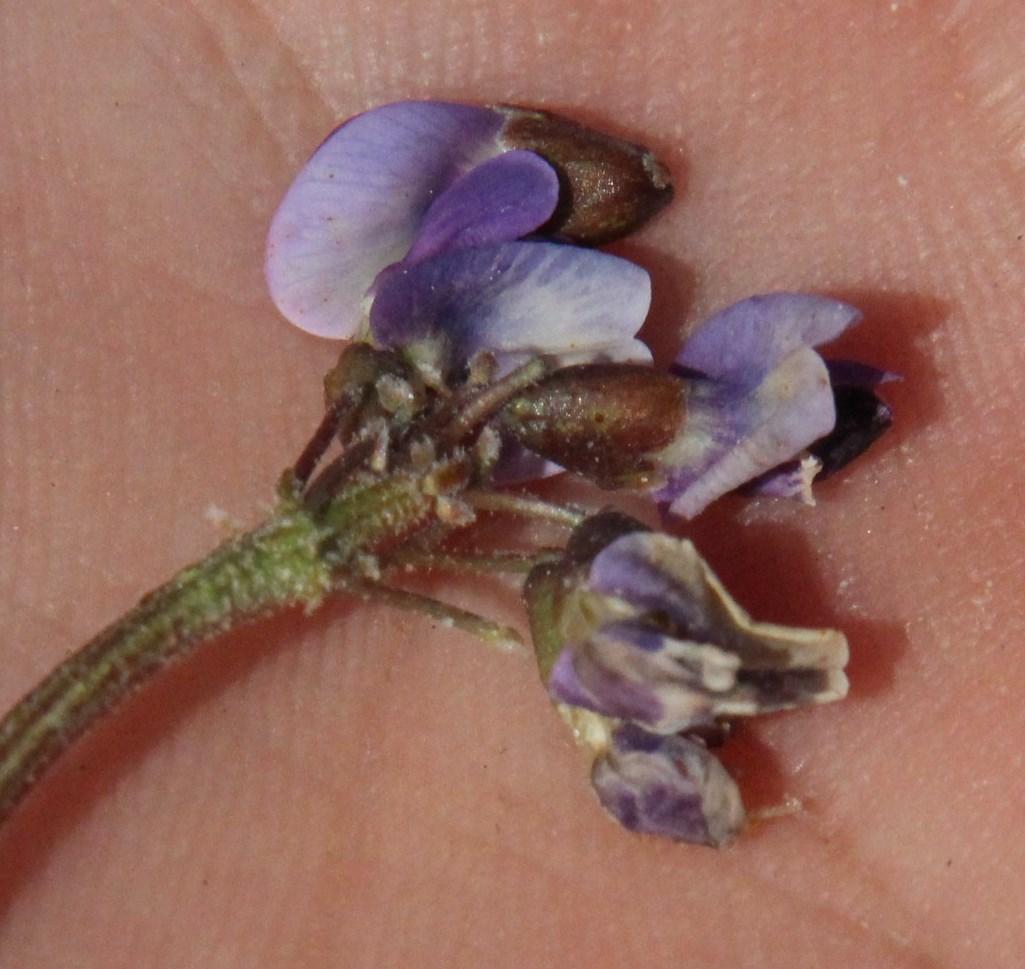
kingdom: Plantae
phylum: Tracheophyta
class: Magnoliopsida
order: Fabales
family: Fabaceae
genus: Dolichos
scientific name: Dolichos decumbens
